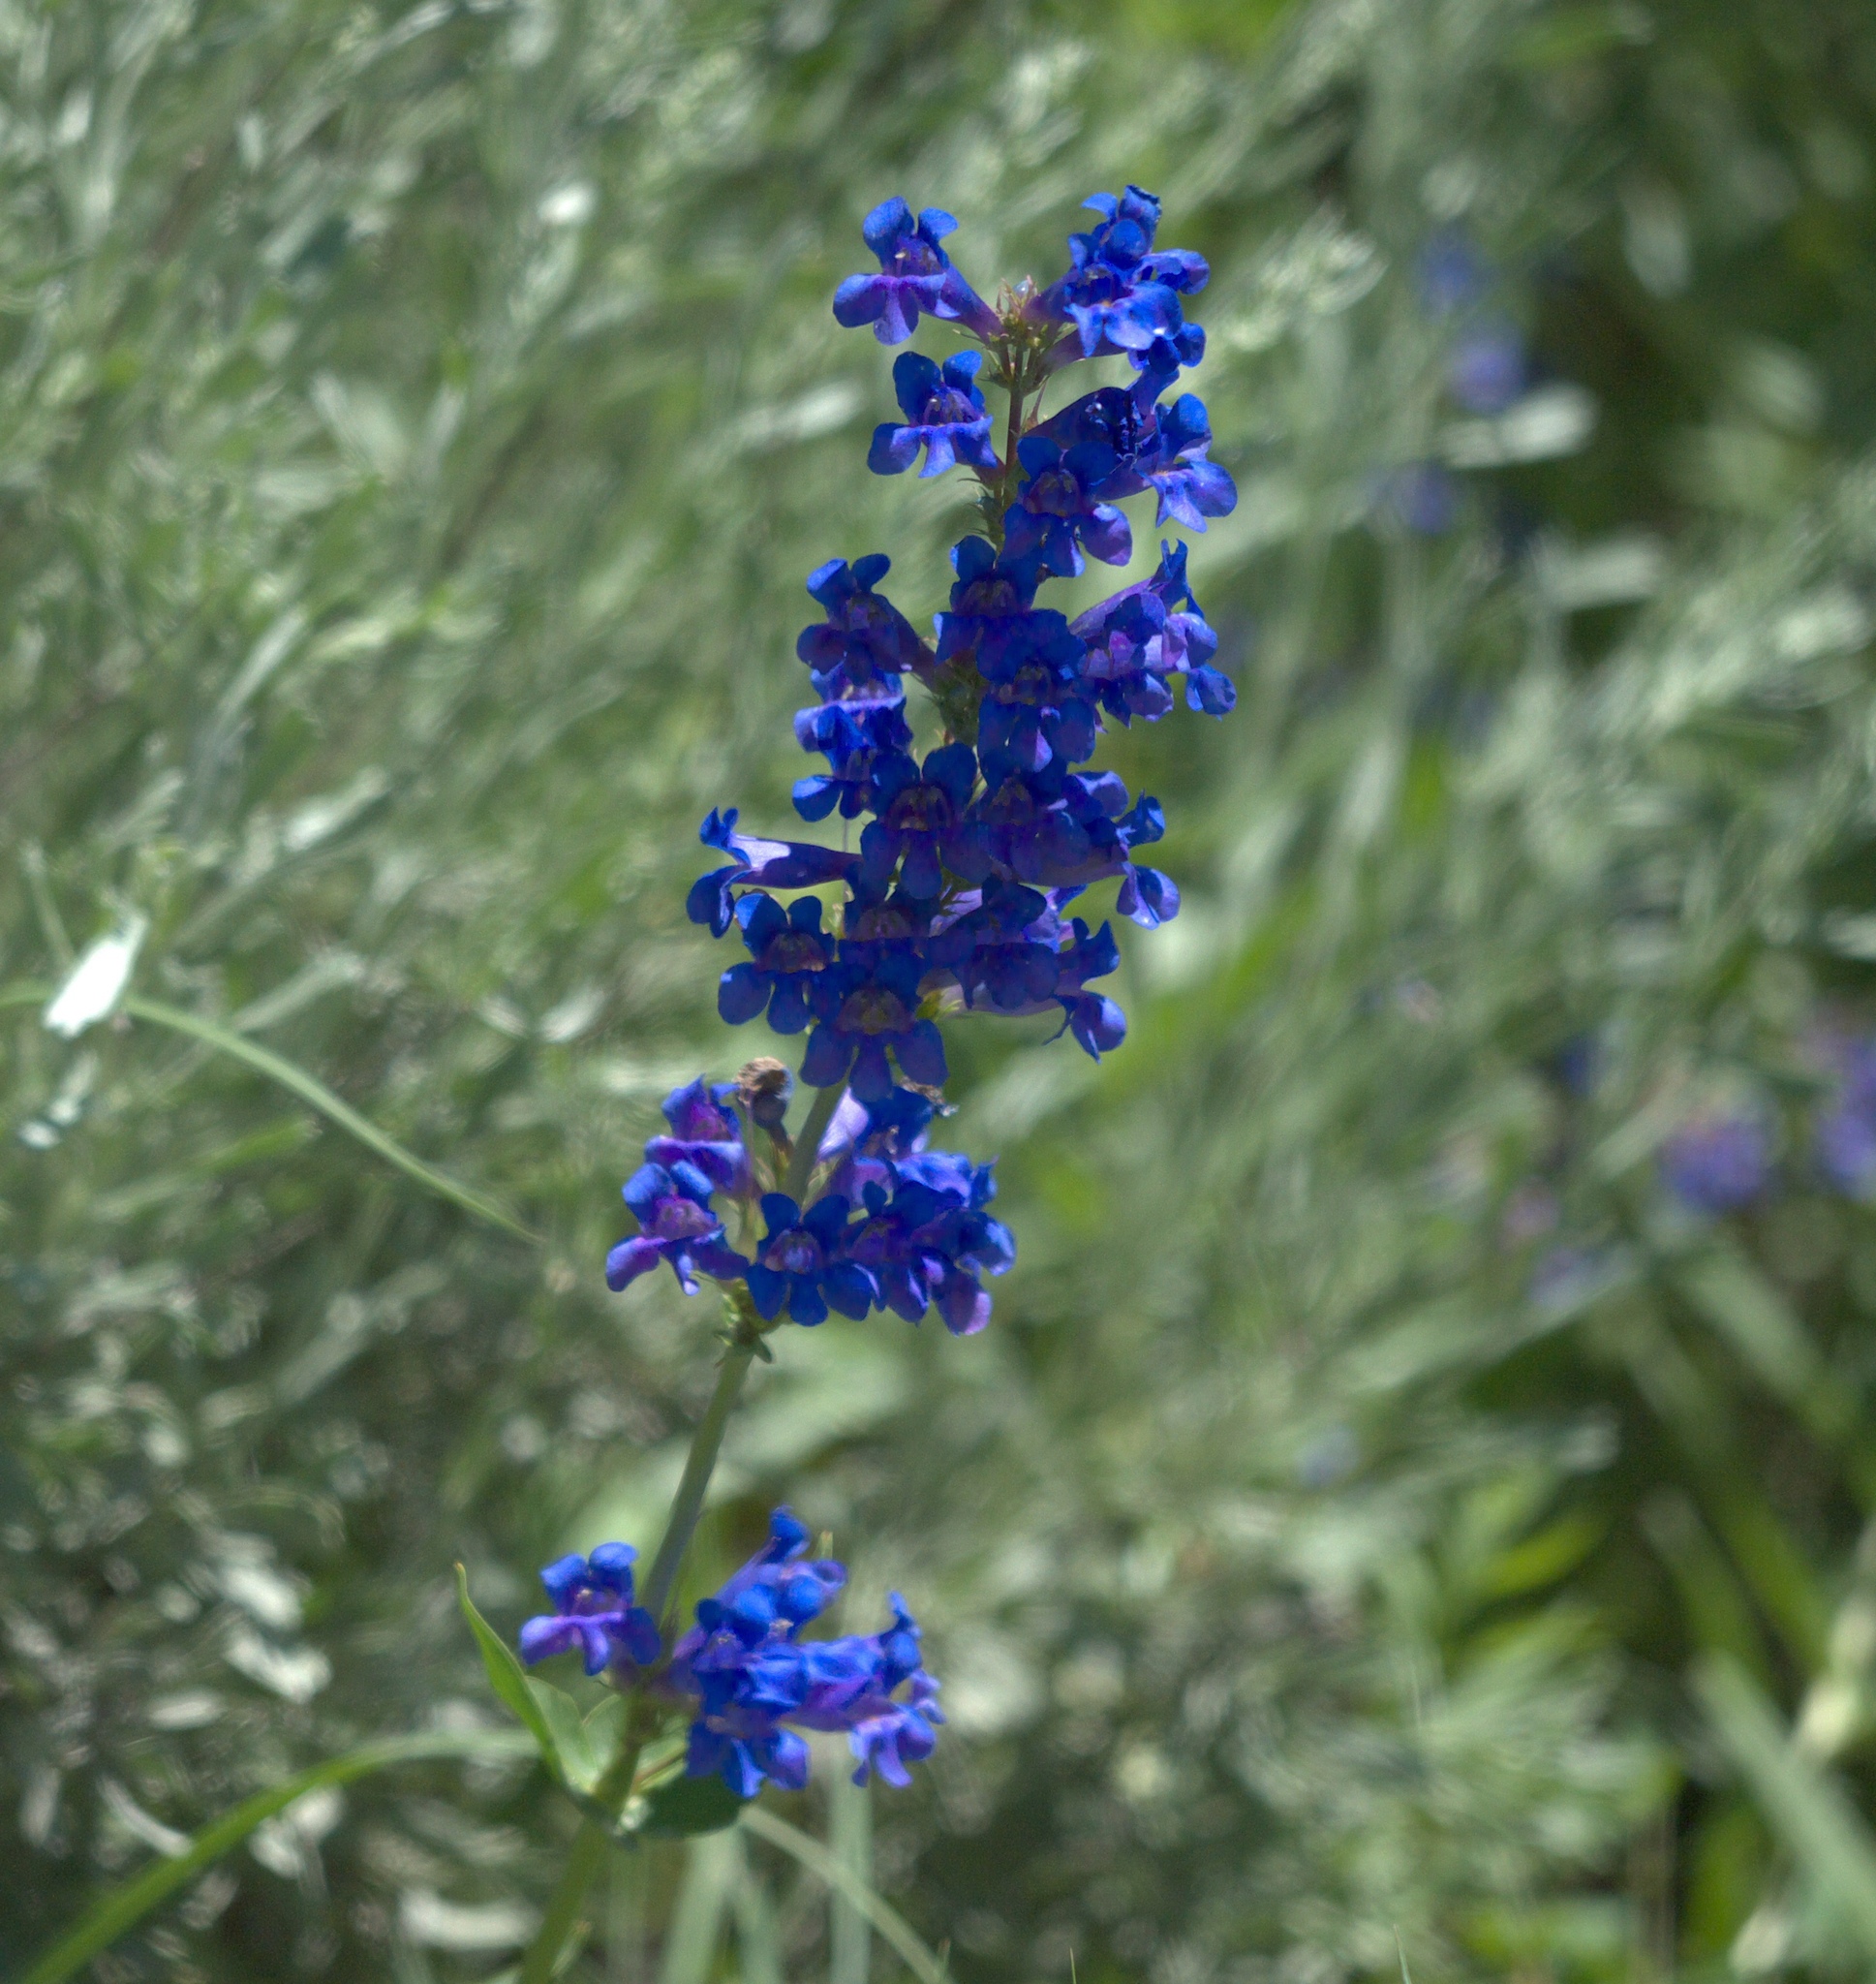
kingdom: Plantae
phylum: Tracheophyta
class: Magnoliopsida
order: Lamiales
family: Plantaginaceae
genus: Penstemon
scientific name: Penstemon cyananthus
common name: Wasatch penstemon
